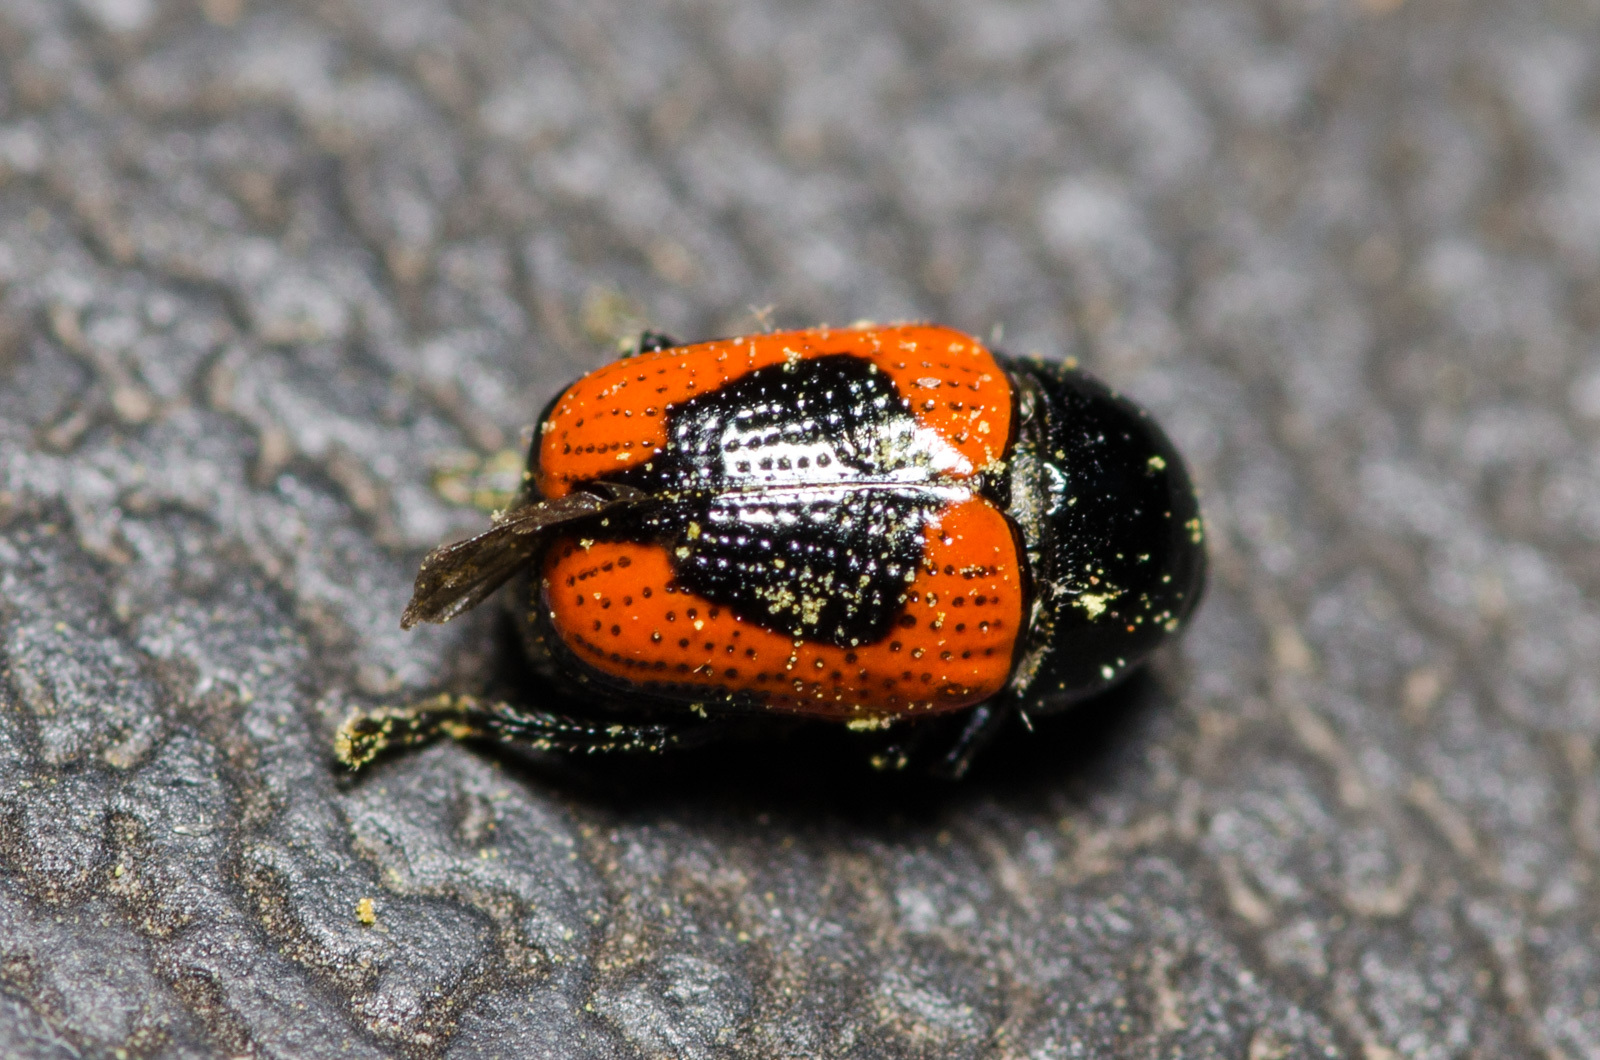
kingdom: Animalia
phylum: Arthropoda
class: Insecta
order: Coleoptera
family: Chrysomelidae
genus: Cryptocephalus
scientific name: Cryptocephalus notatus
